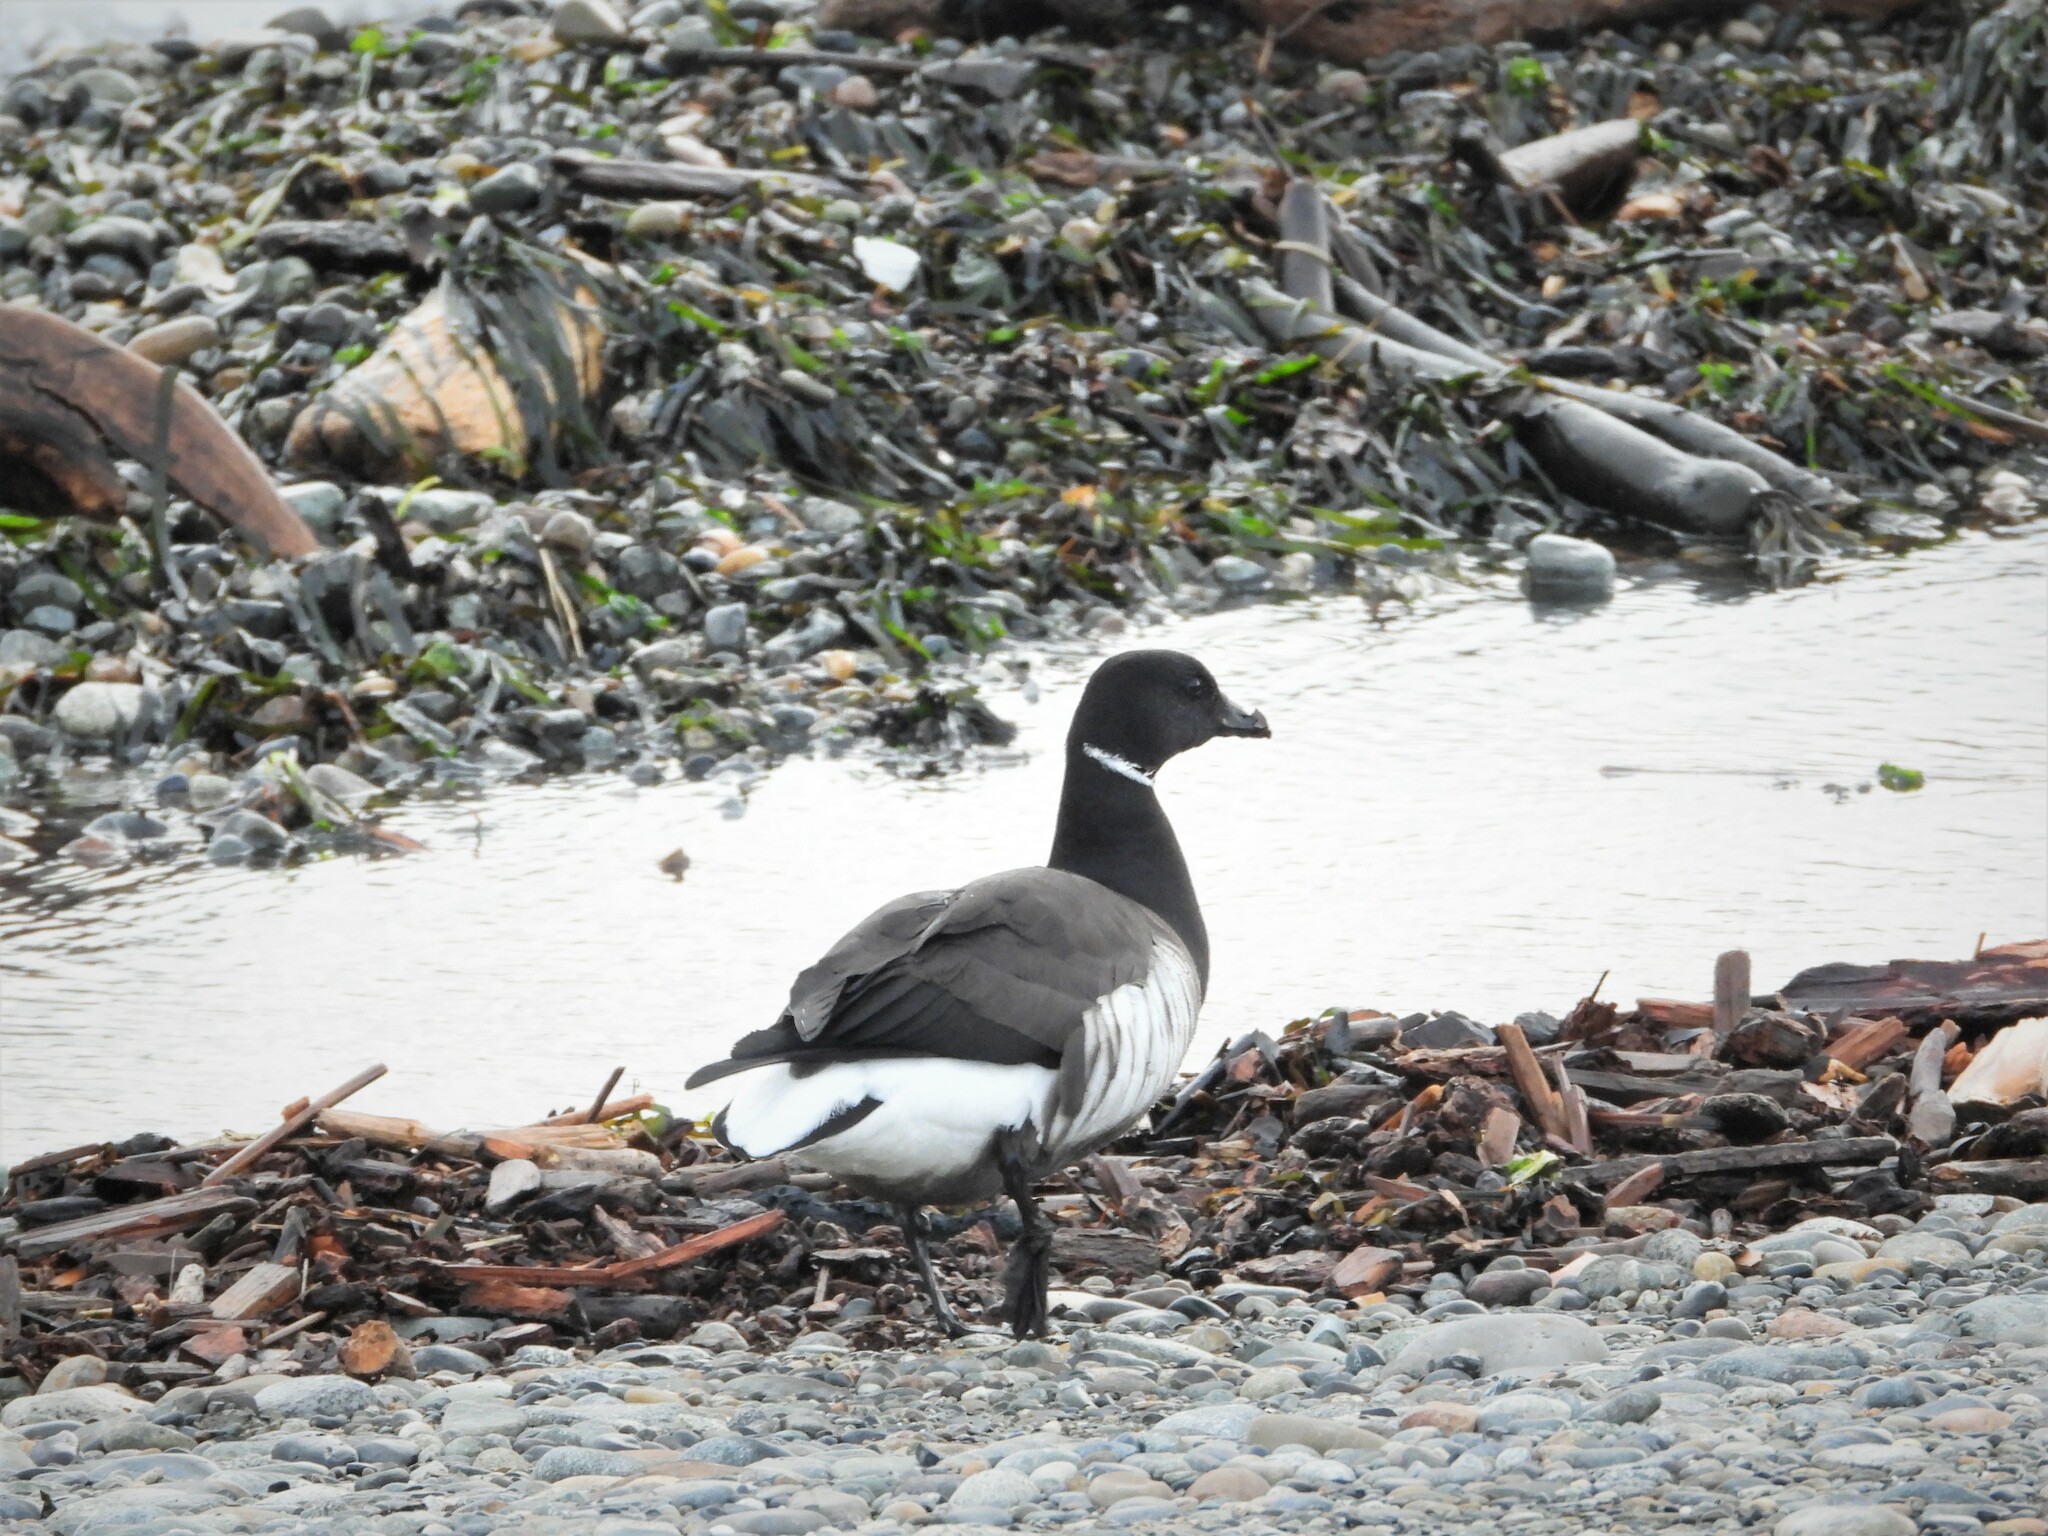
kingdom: Animalia
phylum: Chordata
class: Aves
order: Anseriformes
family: Anatidae
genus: Branta
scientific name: Branta bernicla
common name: Brant goose
